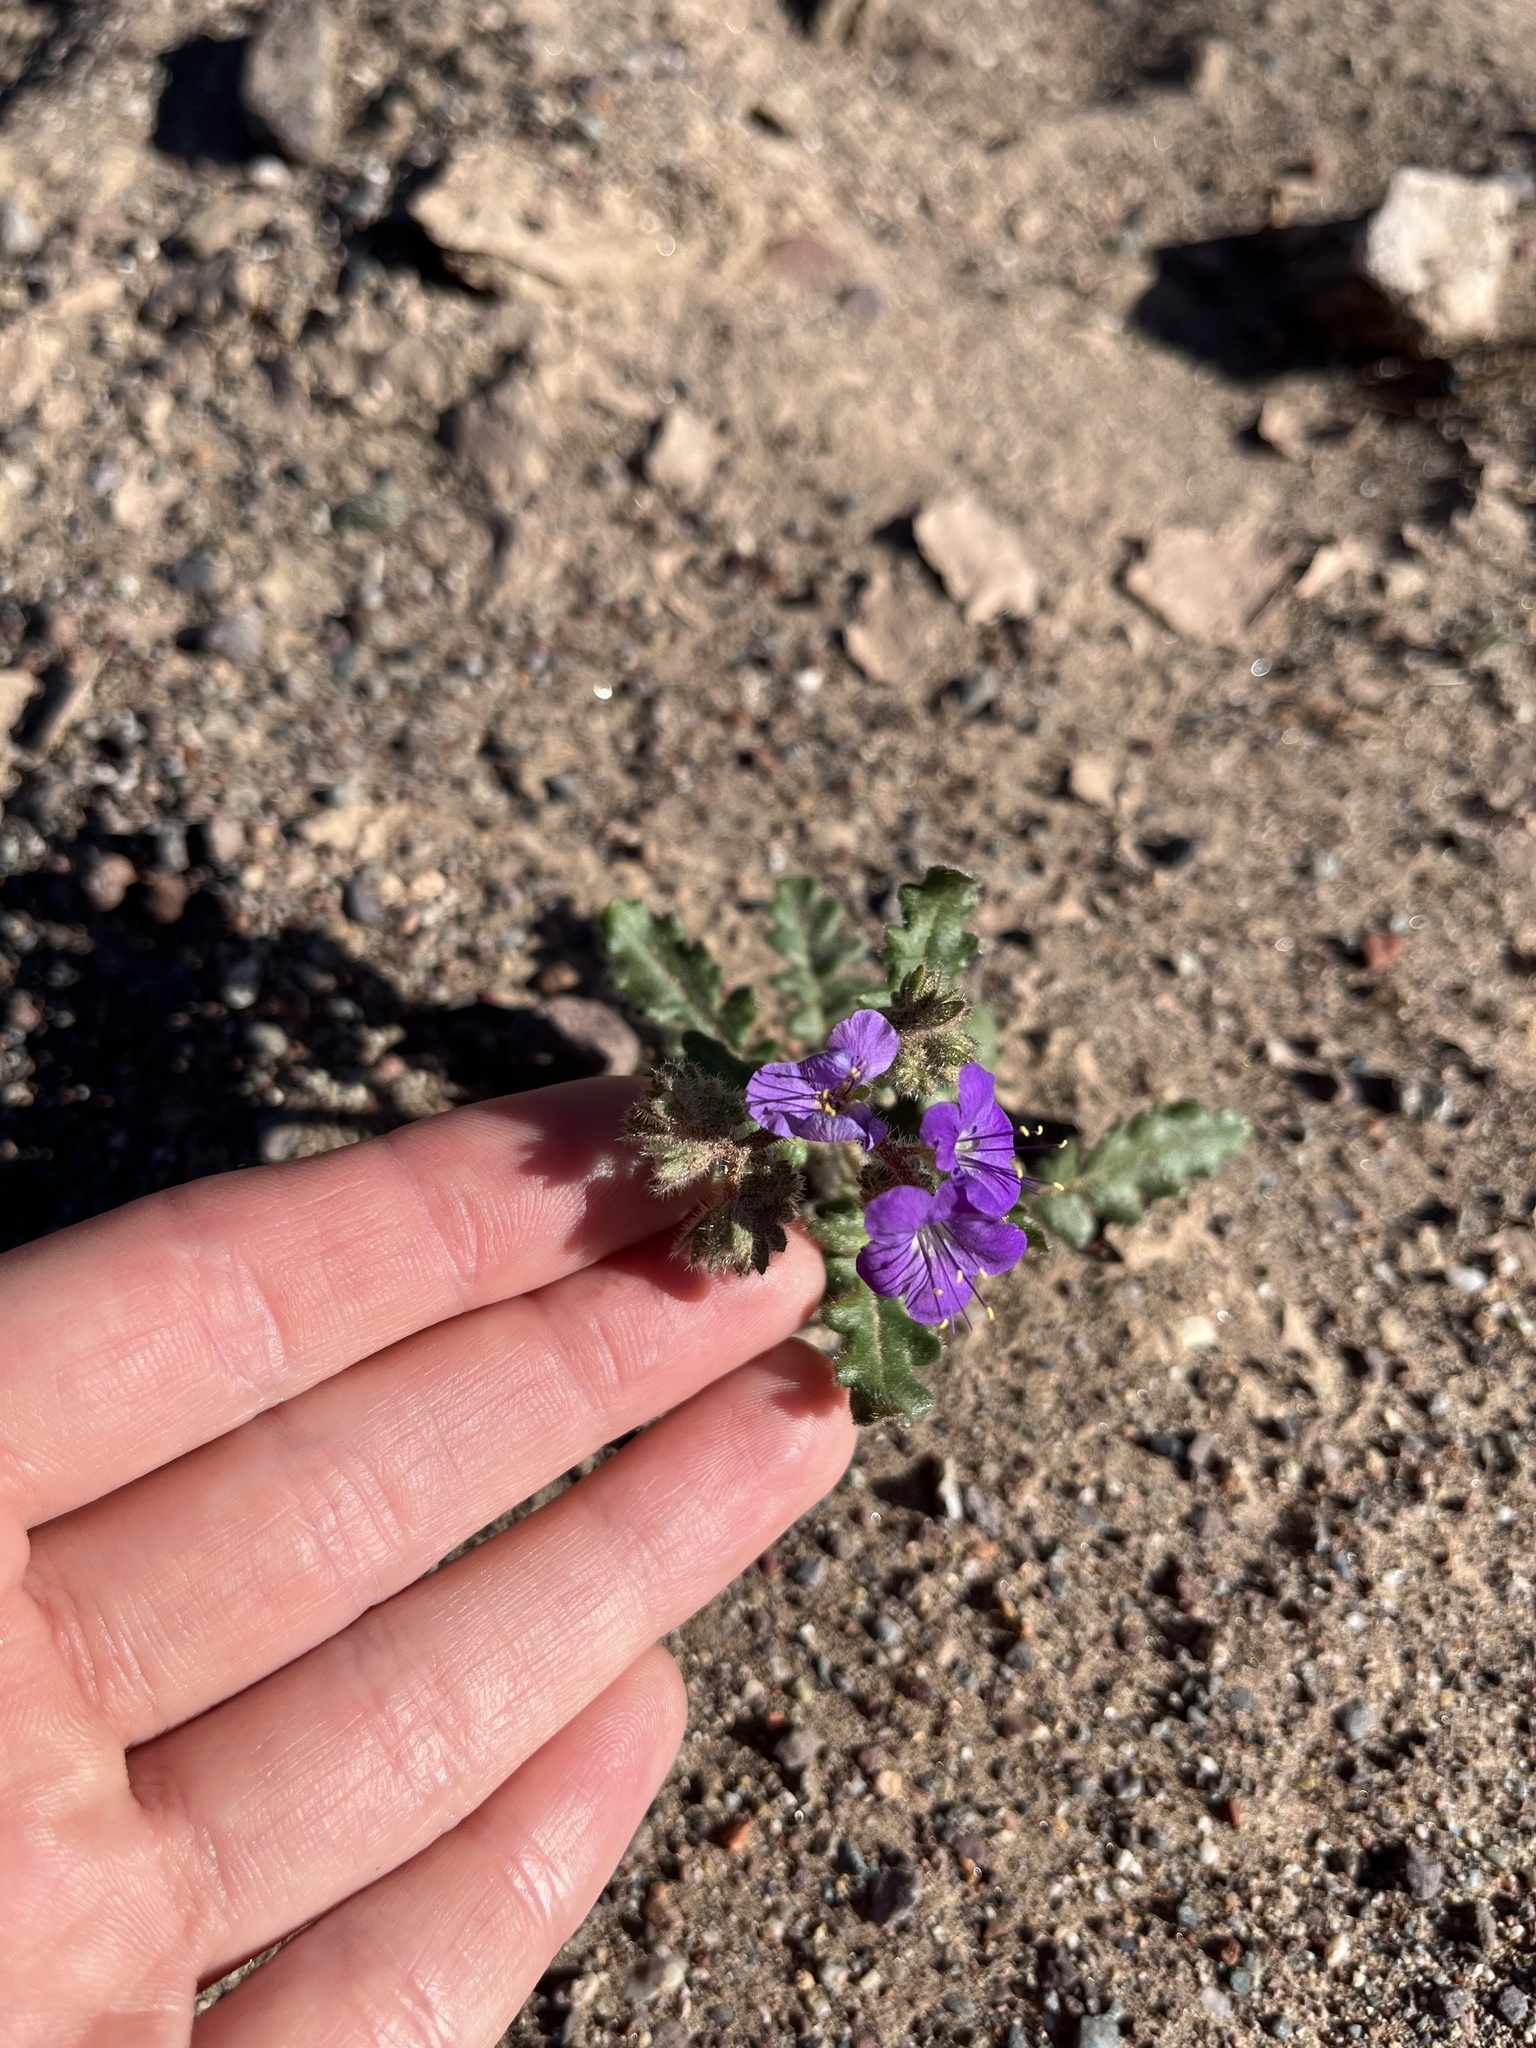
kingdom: Plantae
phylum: Tracheophyta
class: Magnoliopsida
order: Boraginales
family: Hydrophyllaceae
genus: Phacelia
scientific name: Phacelia crenulata
